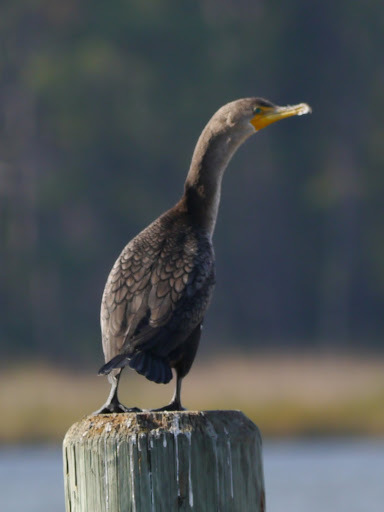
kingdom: Animalia
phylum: Chordata
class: Aves
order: Suliformes
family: Phalacrocoracidae
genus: Phalacrocorax
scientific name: Phalacrocorax auritus
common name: Double-crested cormorant
